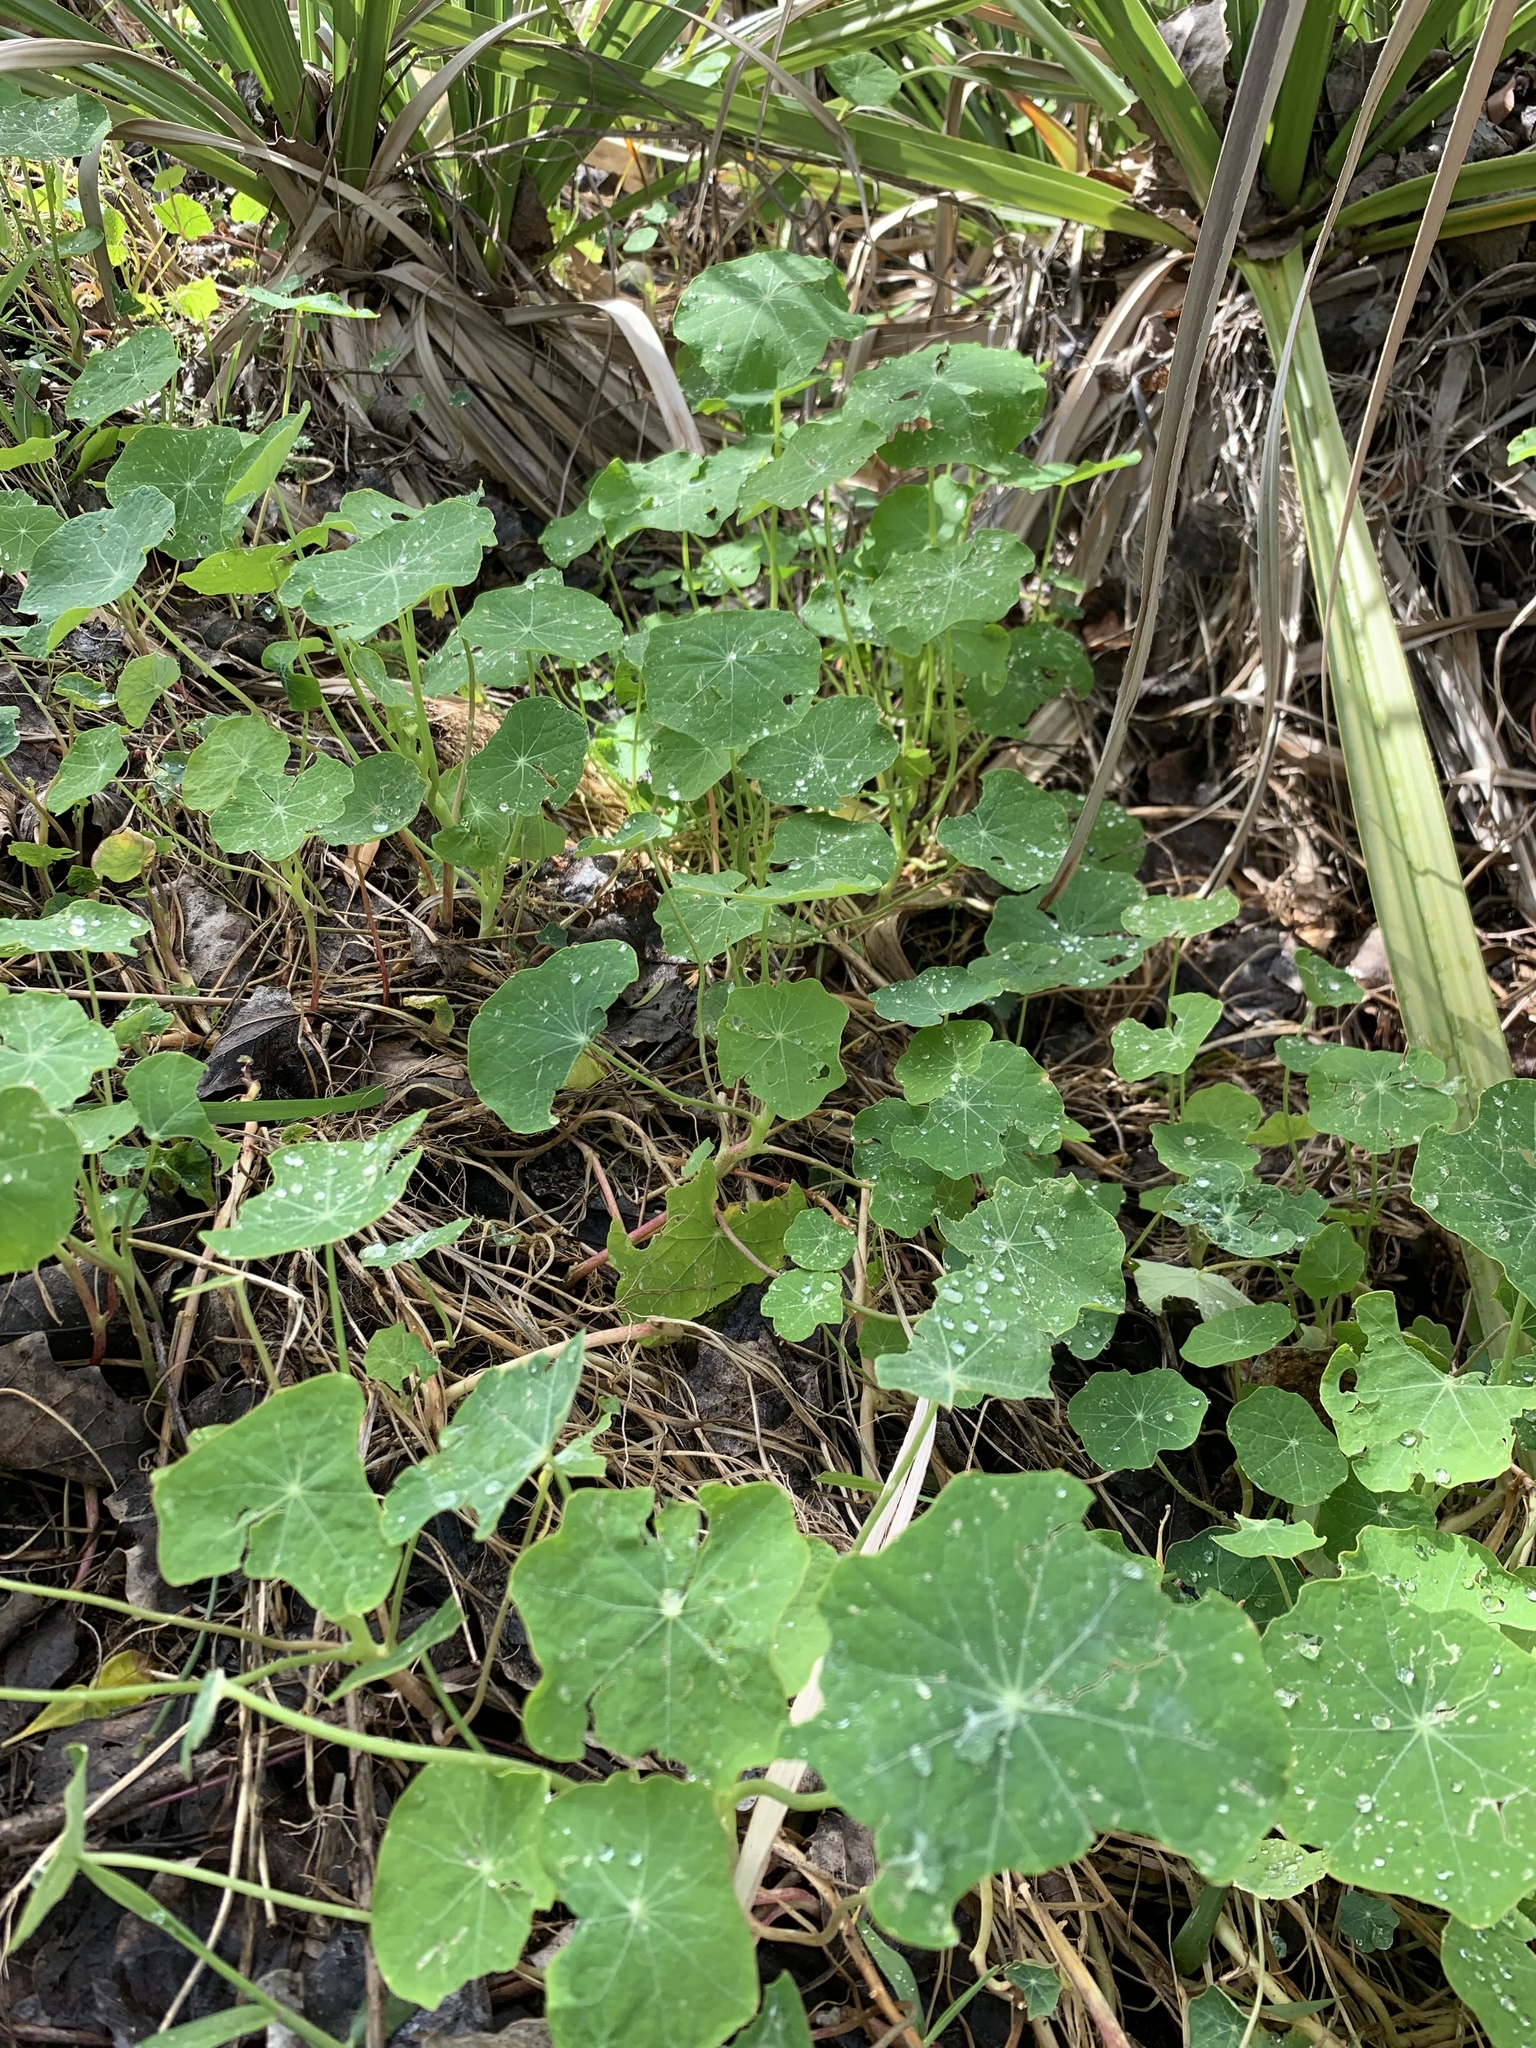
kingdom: Plantae
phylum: Tracheophyta
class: Magnoliopsida
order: Brassicales
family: Tropaeolaceae
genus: Tropaeolum
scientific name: Tropaeolum majus
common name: Nasturtium
